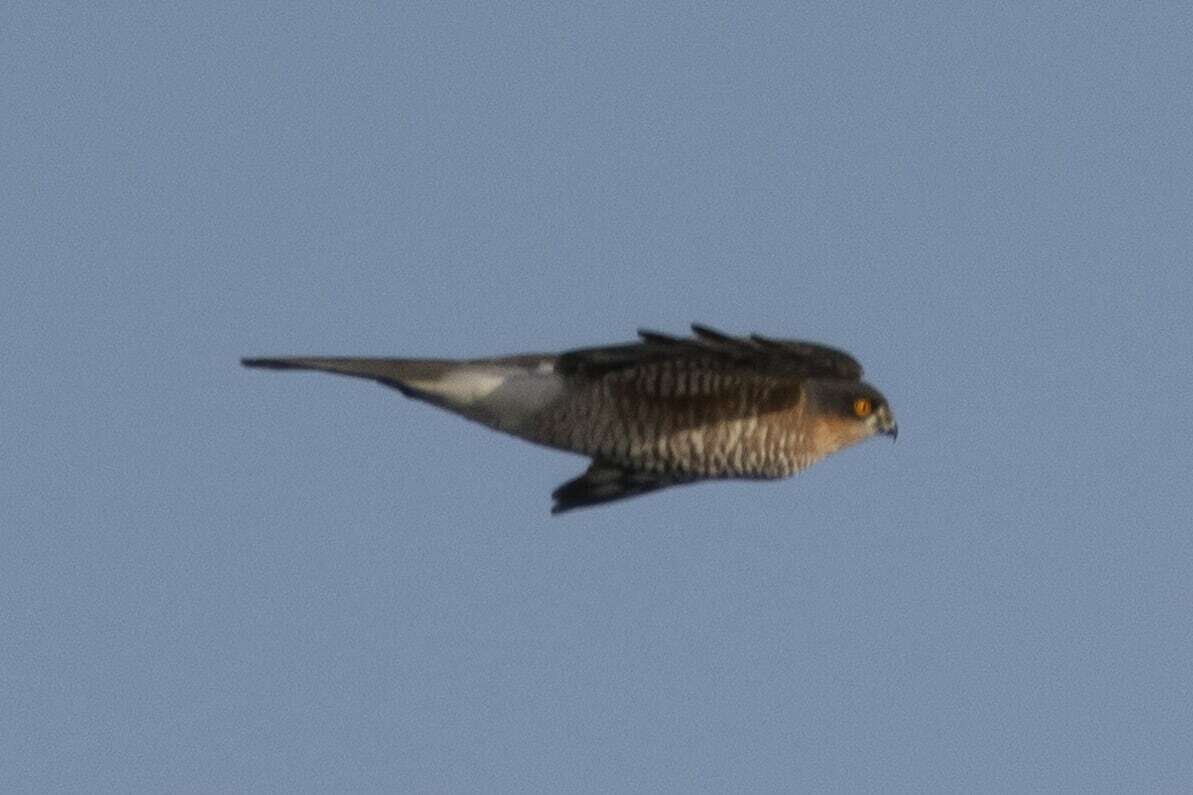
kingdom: Animalia
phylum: Chordata
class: Aves
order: Accipitriformes
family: Accipitridae
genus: Accipiter
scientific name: Accipiter nisus
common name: Eurasian sparrowhawk
